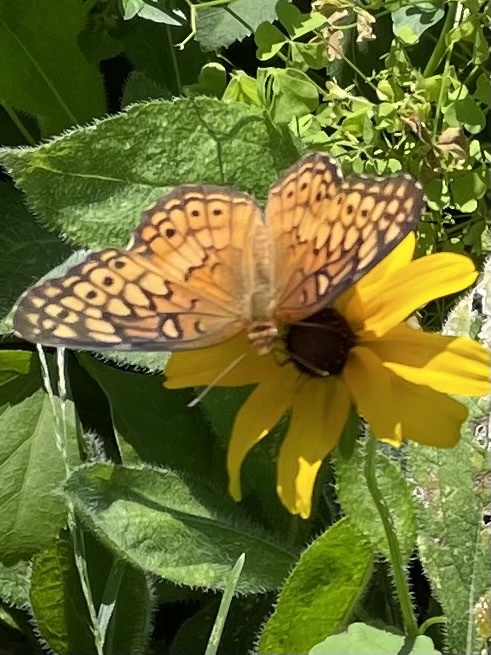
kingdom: Animalia
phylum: Arthropoda
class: Insecta
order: Lepidoptera
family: Nymphalidae
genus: Euptoieta
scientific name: Euptoieta claudia
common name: Variegated fritillary
